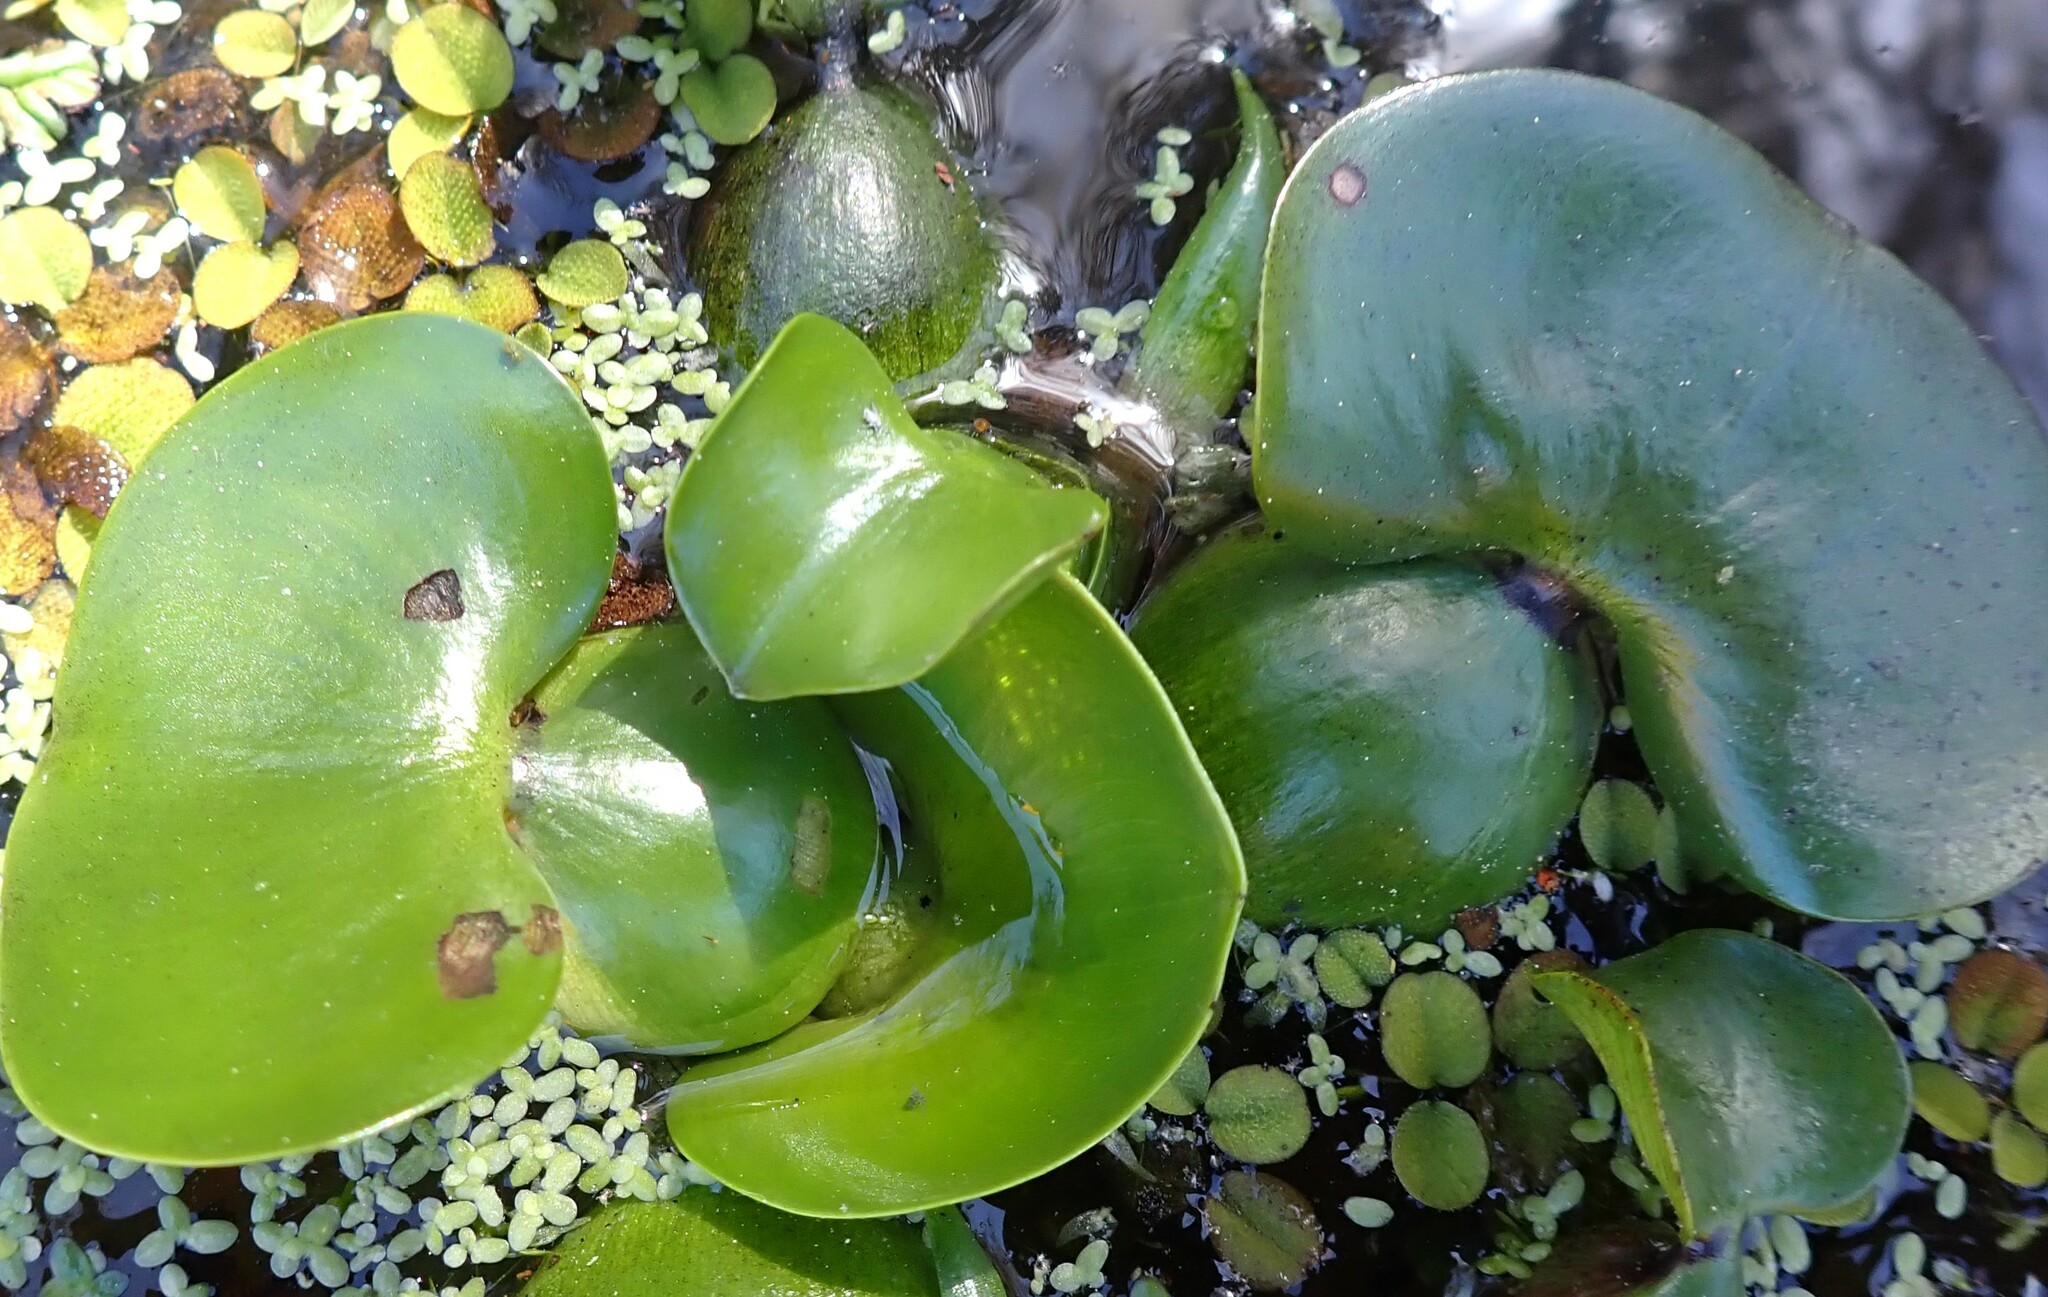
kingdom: Plantae
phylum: Tracheophyta
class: Liliopsida
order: Commelinales
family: Pontederiaceae
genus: Pontederia
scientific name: Pontederia crassipes
